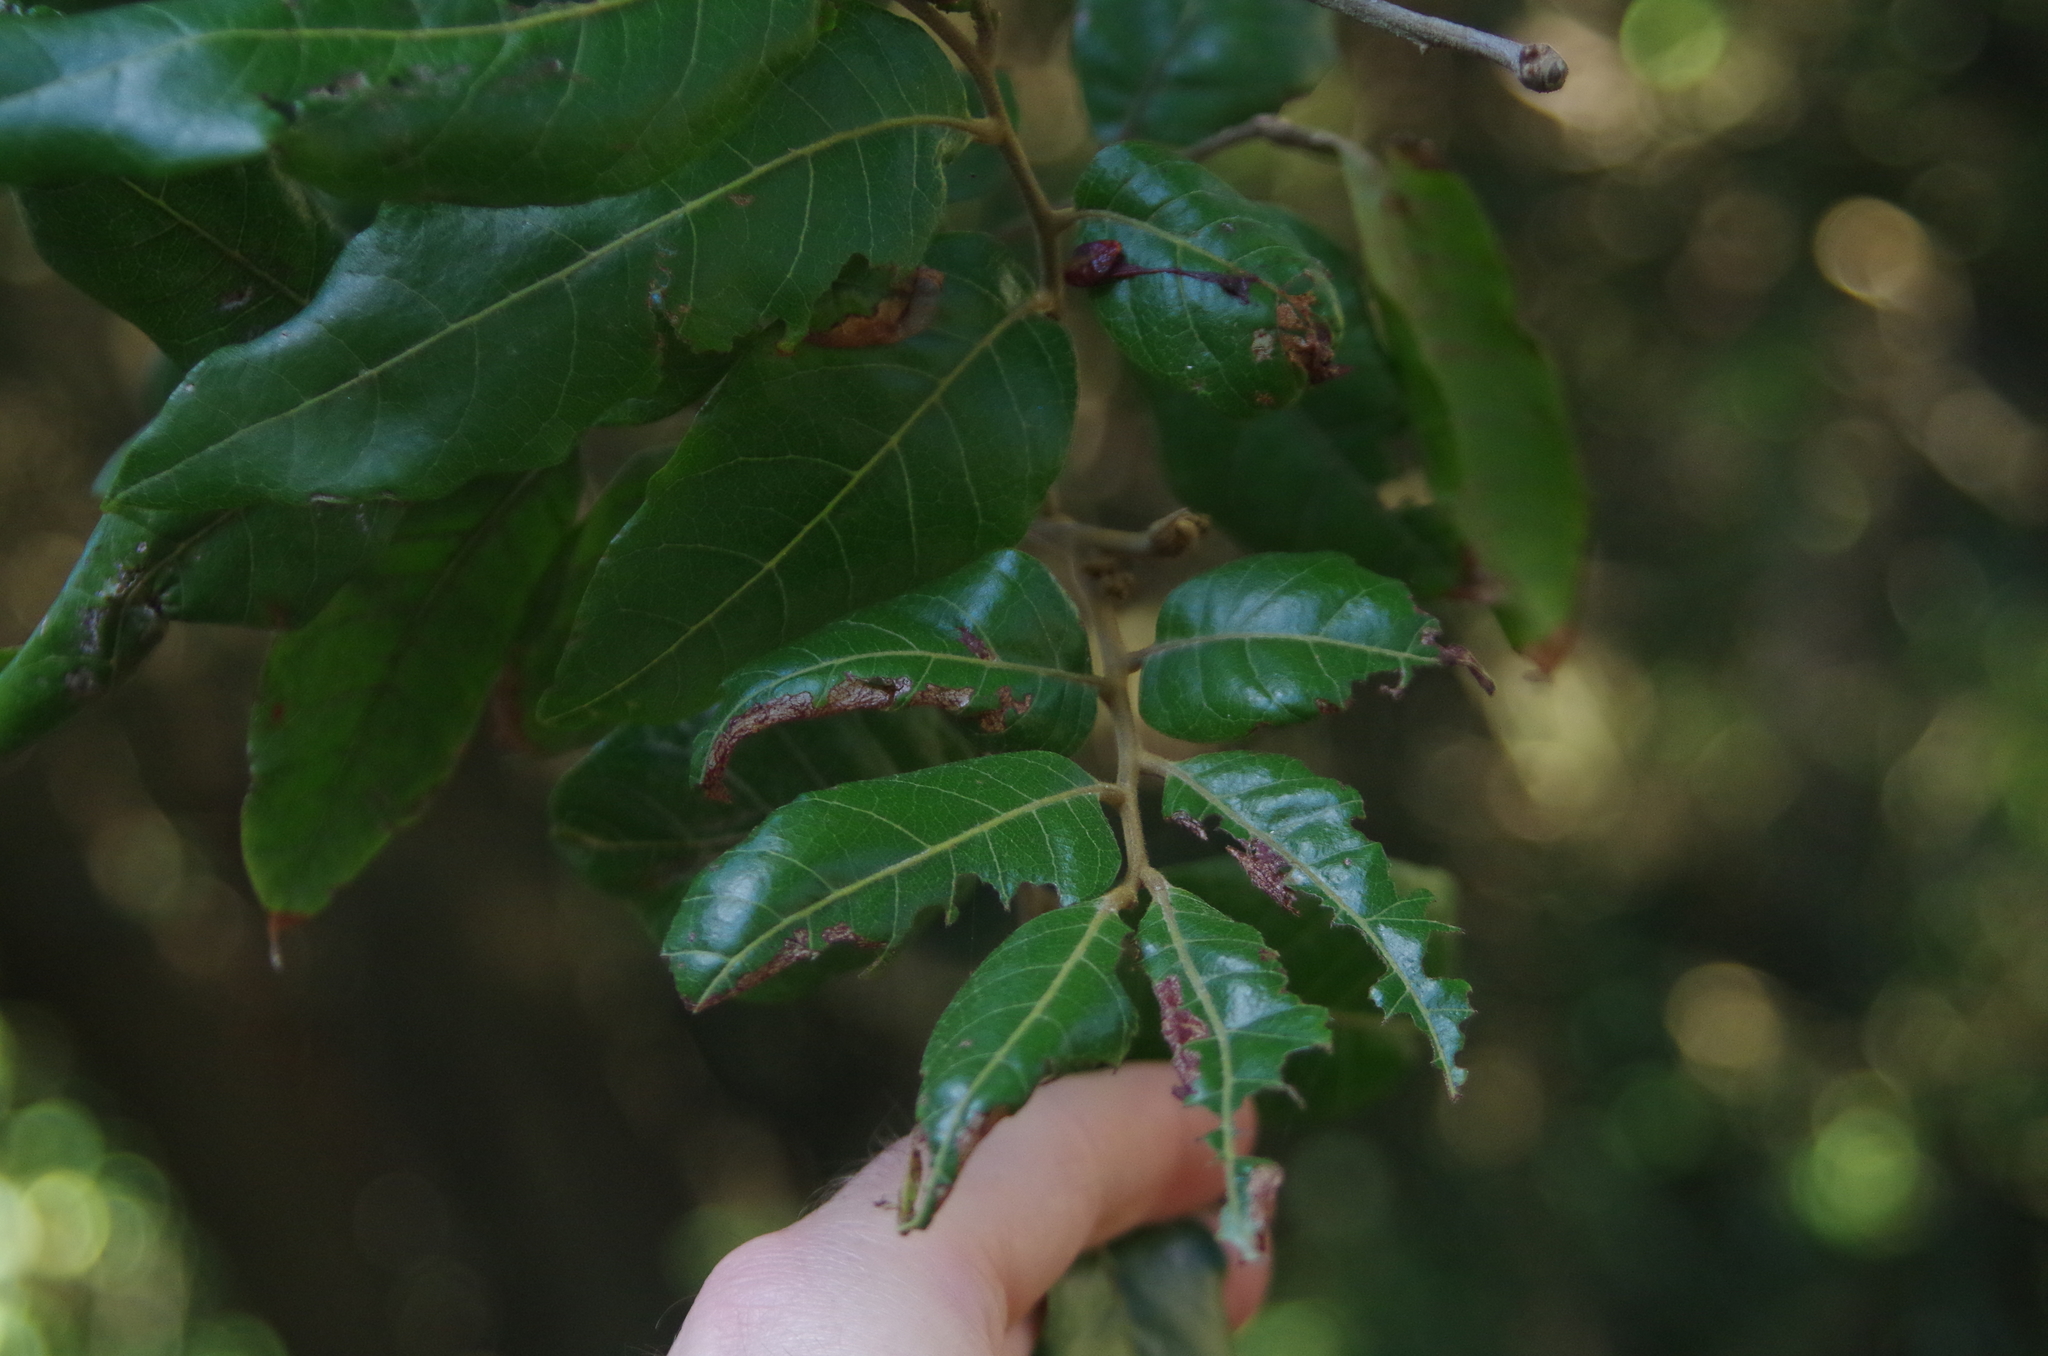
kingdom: Plantae
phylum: Tracheophyta
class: Magnoliopsida
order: Sapindales
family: Sapindaceae
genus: Alectryon
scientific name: Alectryon excelsus
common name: Three kings titoki
